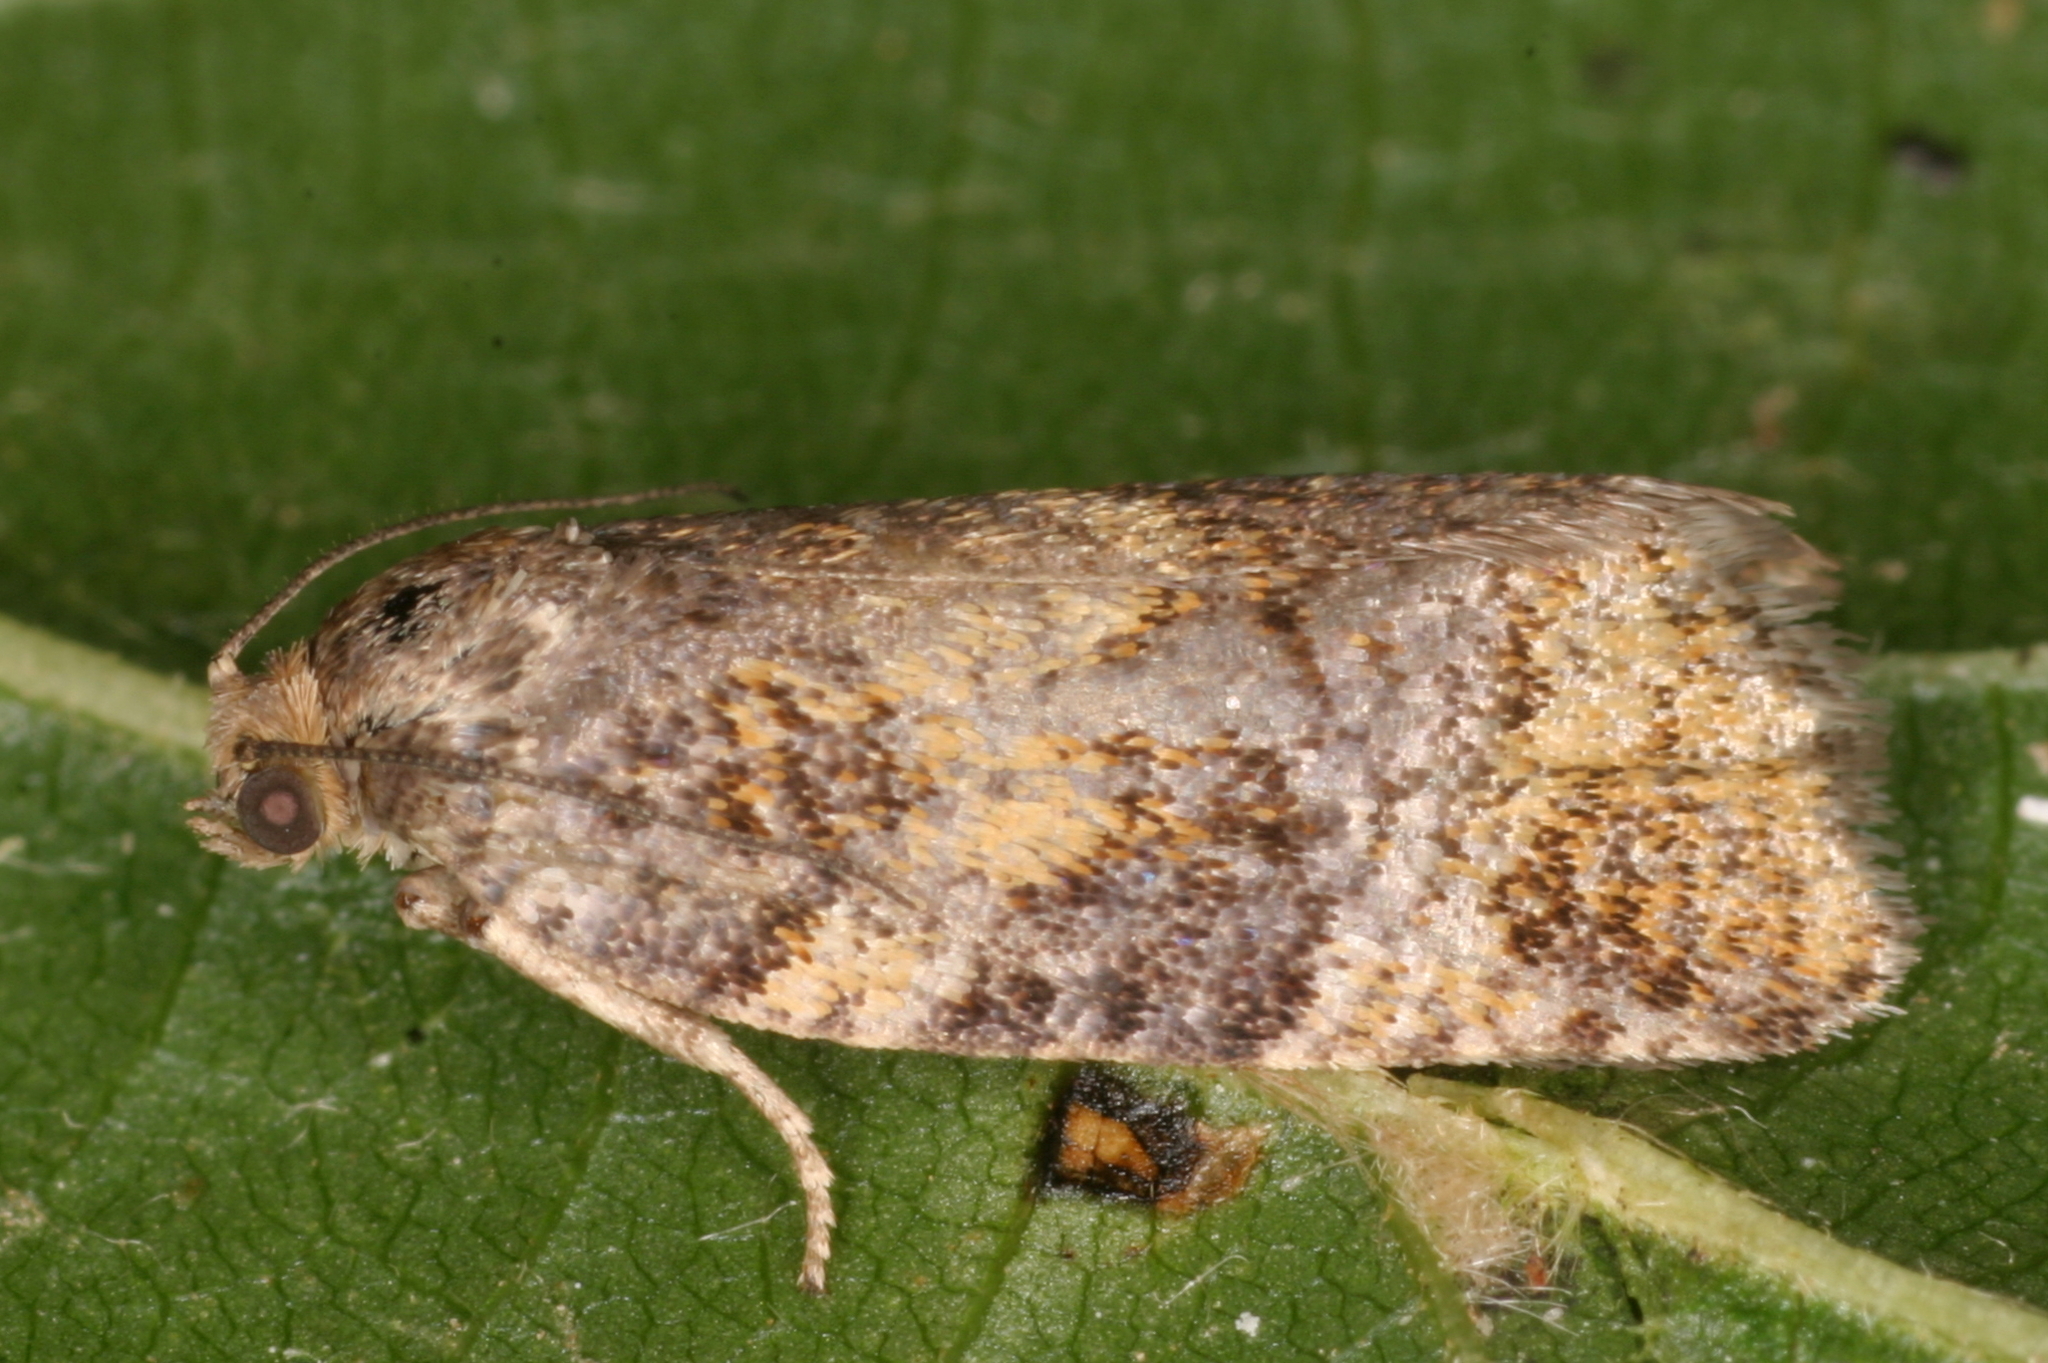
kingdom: Animalia
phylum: Arthropoda
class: Insecta
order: Lepidoptera
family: Tortricidae
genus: Ptycholomoides
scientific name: Ptycholomoides aeriferana
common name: Yellow larch tortrix
